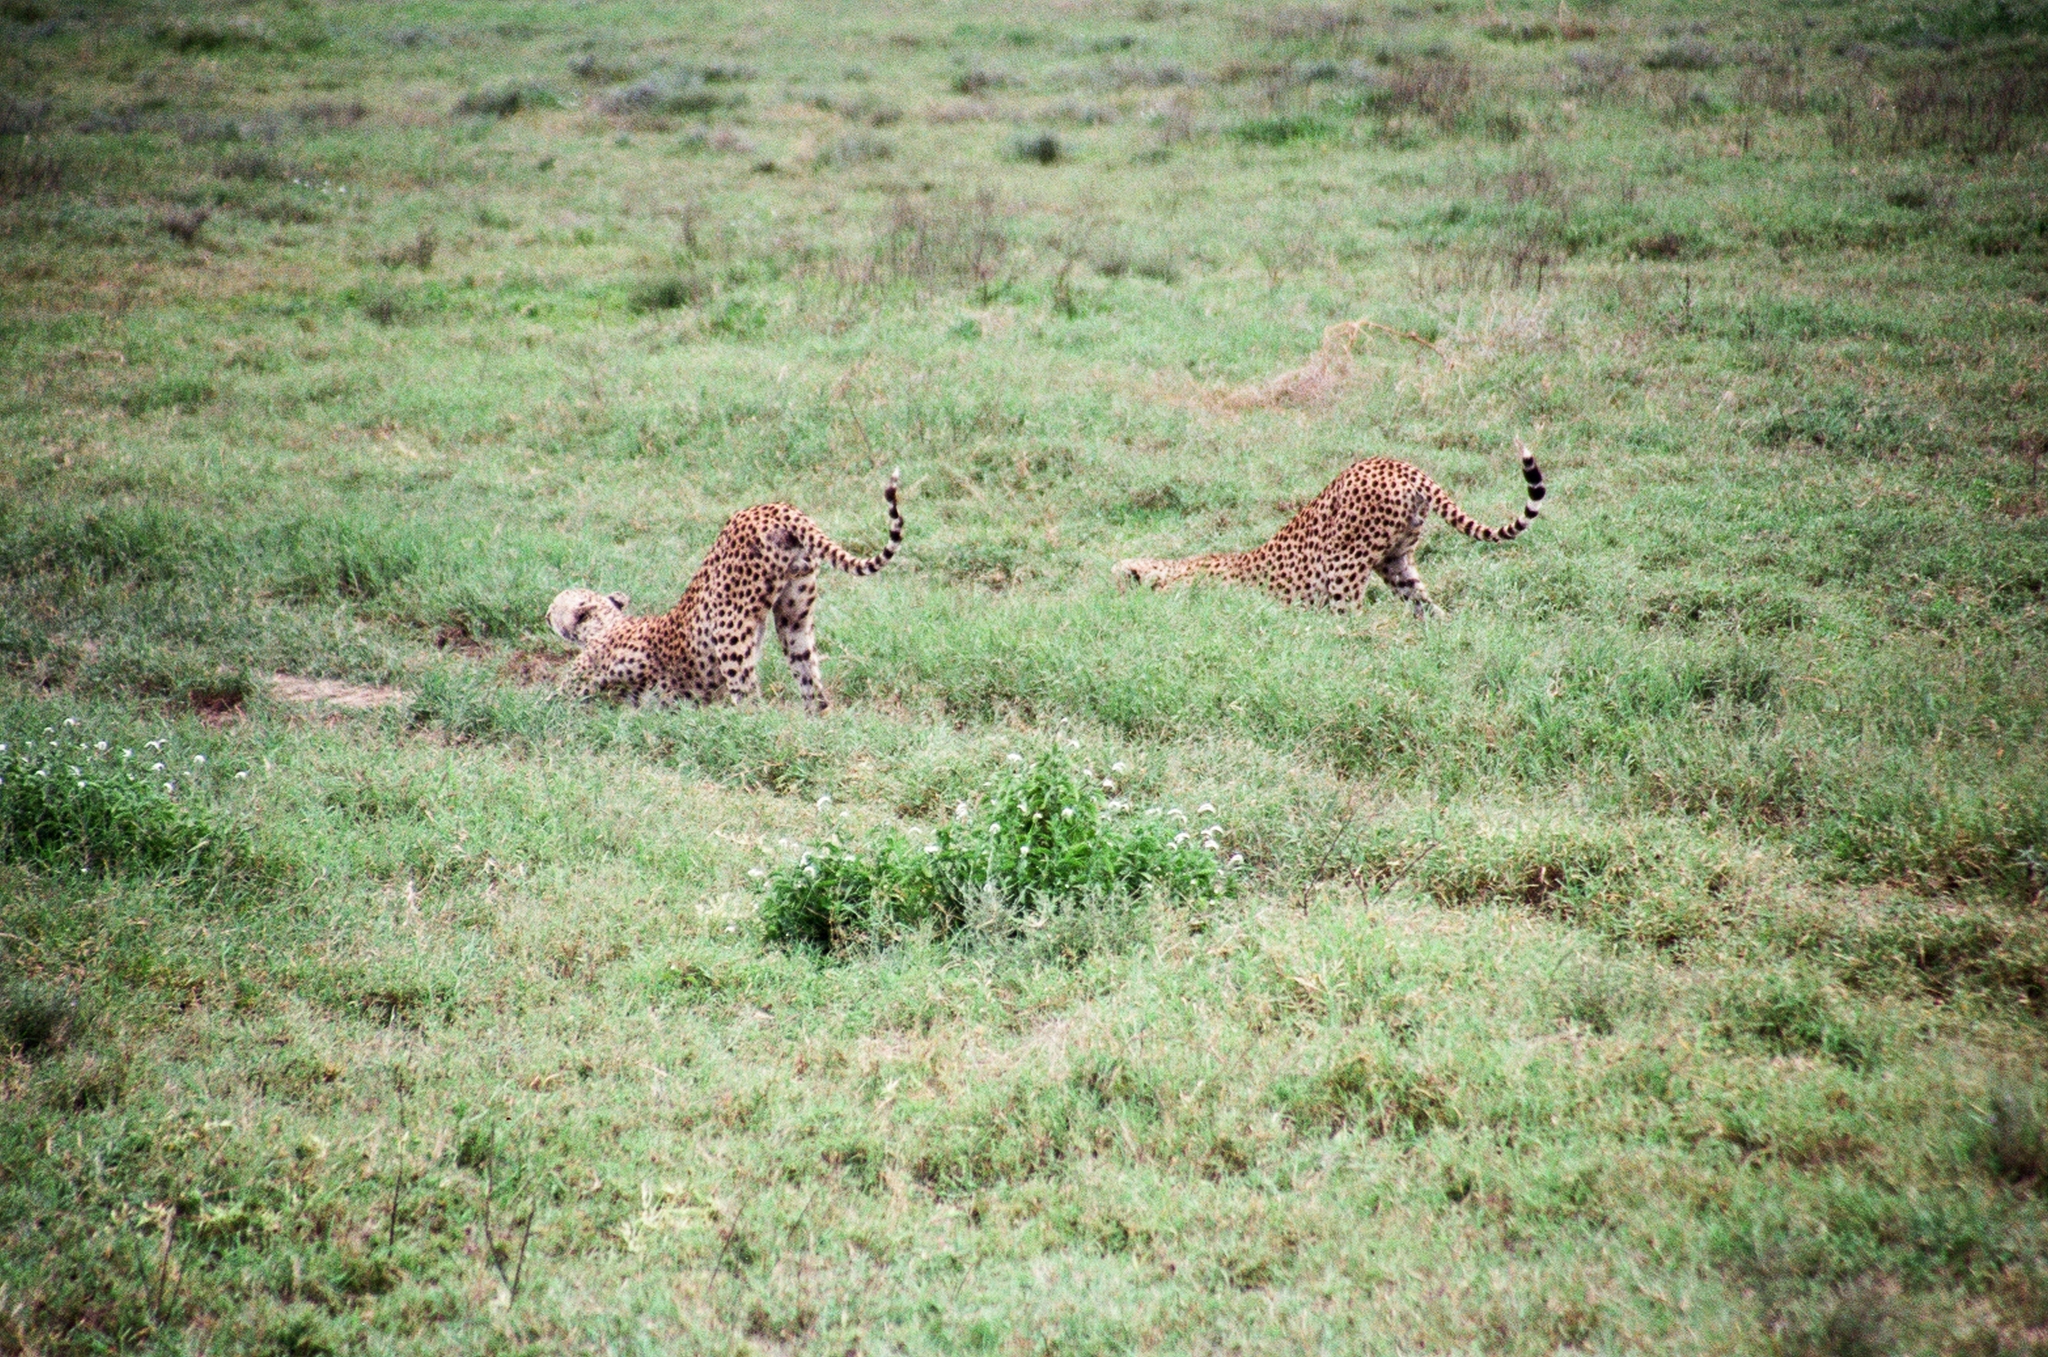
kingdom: Animalia
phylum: Chordata
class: Mammalia
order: Carnivora
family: Felidae
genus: Acinonyx
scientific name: Acinonyx jubatus
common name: Cheetah
